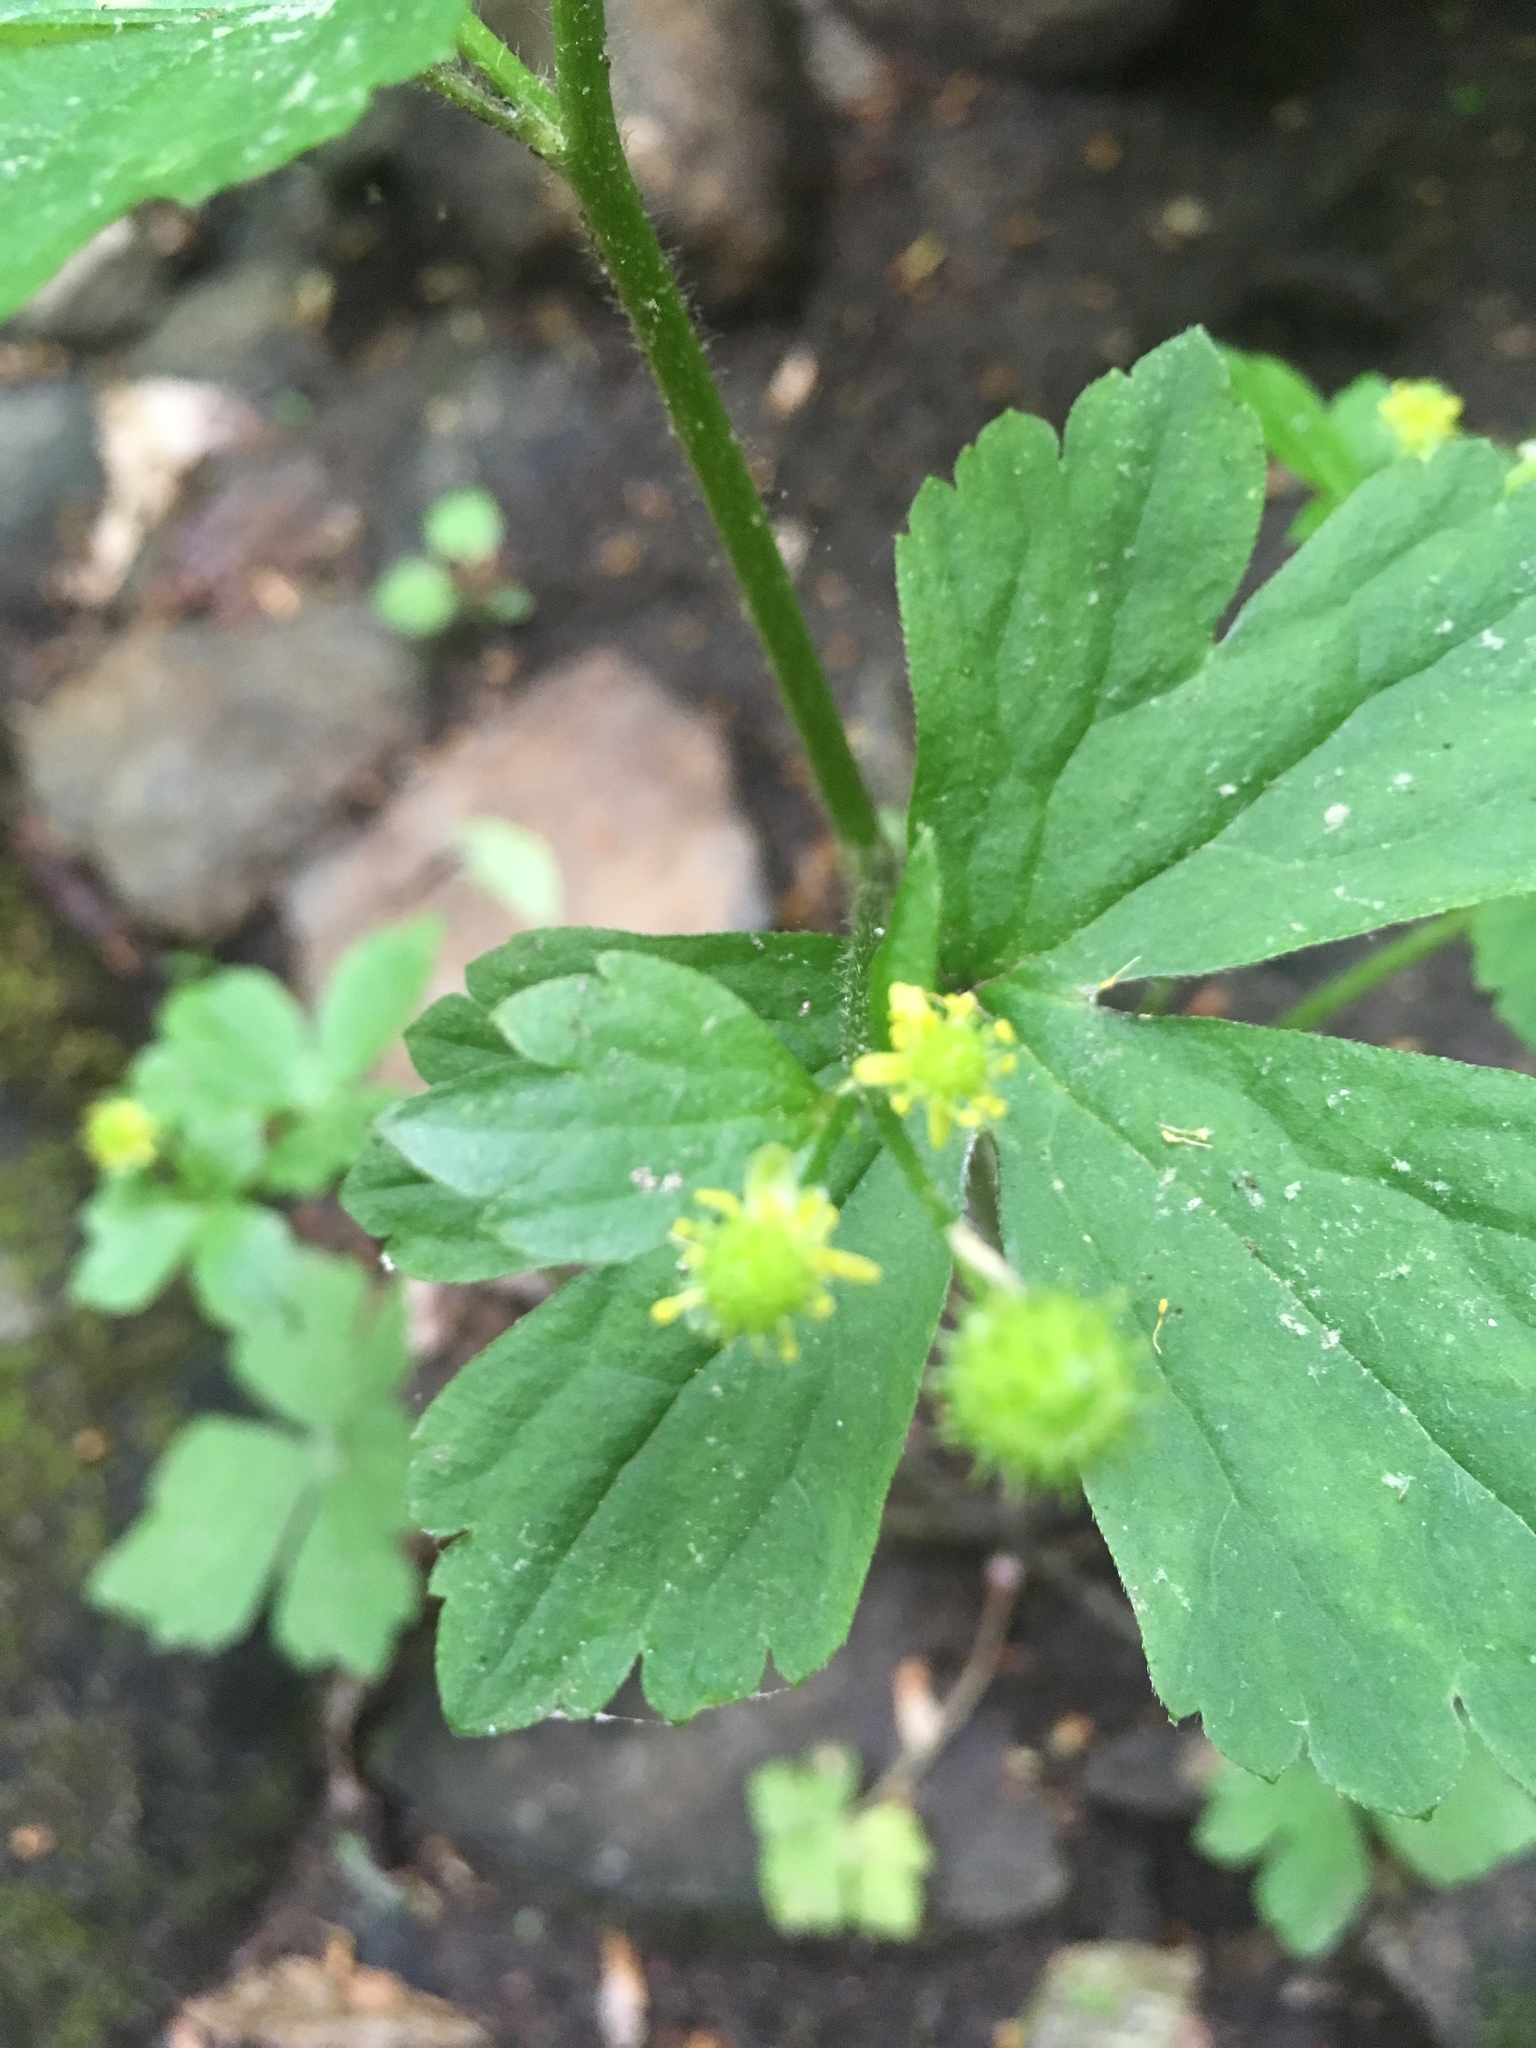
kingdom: Plantae
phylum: Tracheophyta
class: Magnoliopsida
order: Ranunculales
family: Ranunculaceae
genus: Ranunculus
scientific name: Ranunculus recurvatus
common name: Blisterwort
